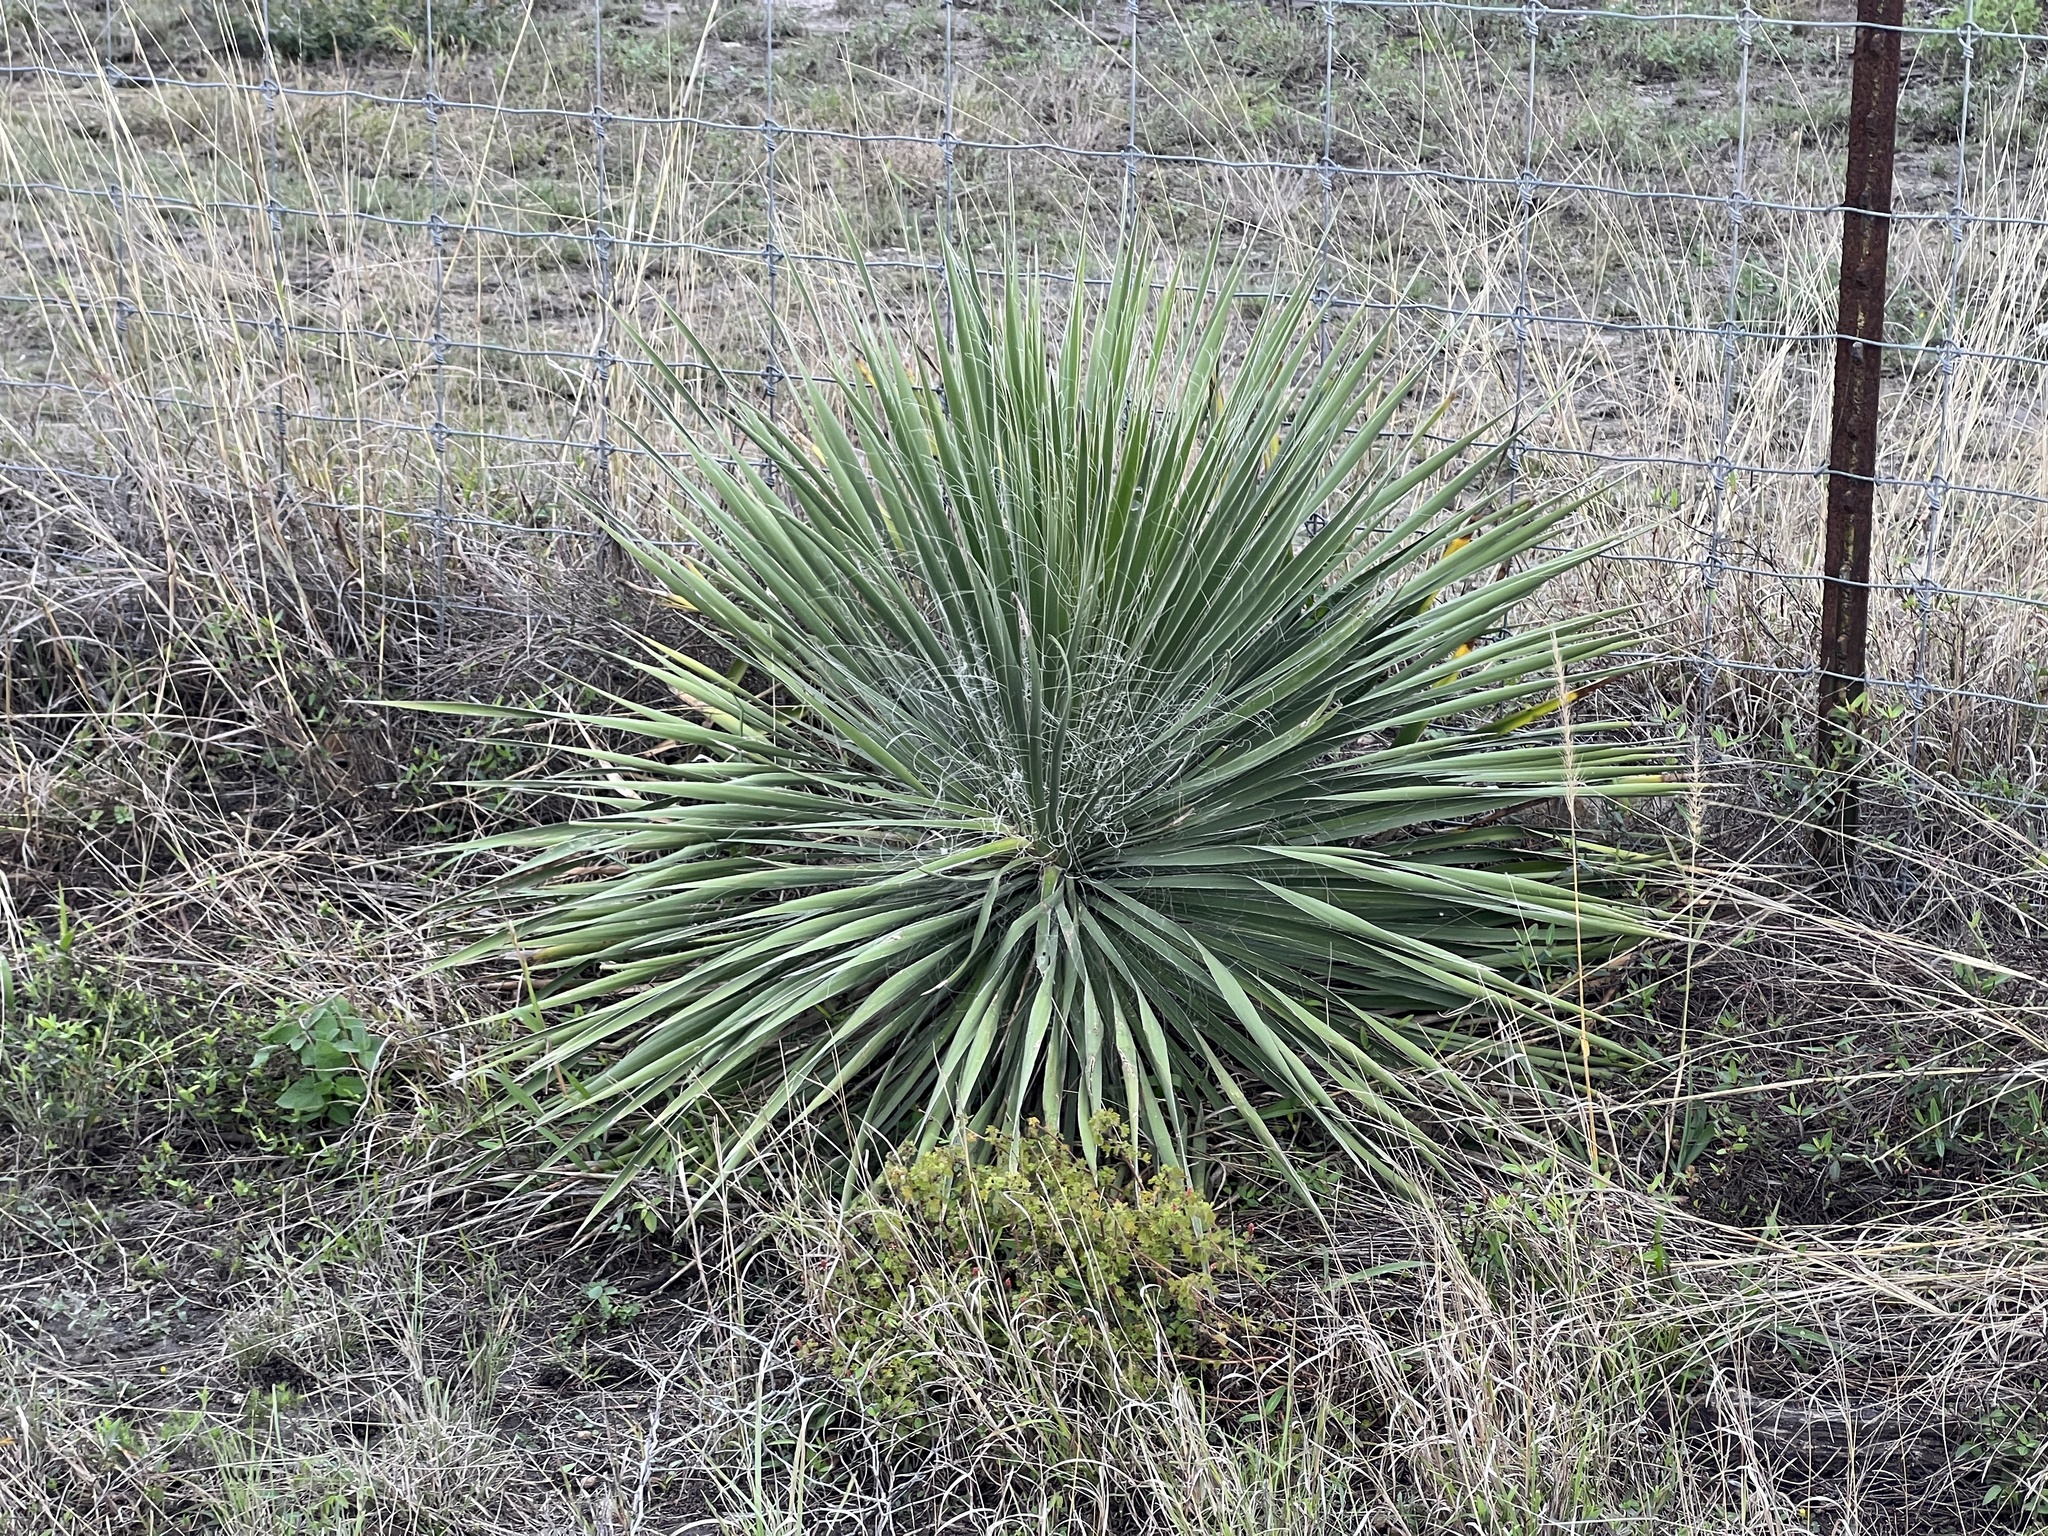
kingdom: Plantae
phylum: Tracheophyta
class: Liliopsida
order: Asparagales
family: Asparagaceae
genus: Yucca
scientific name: Yucca constricta
